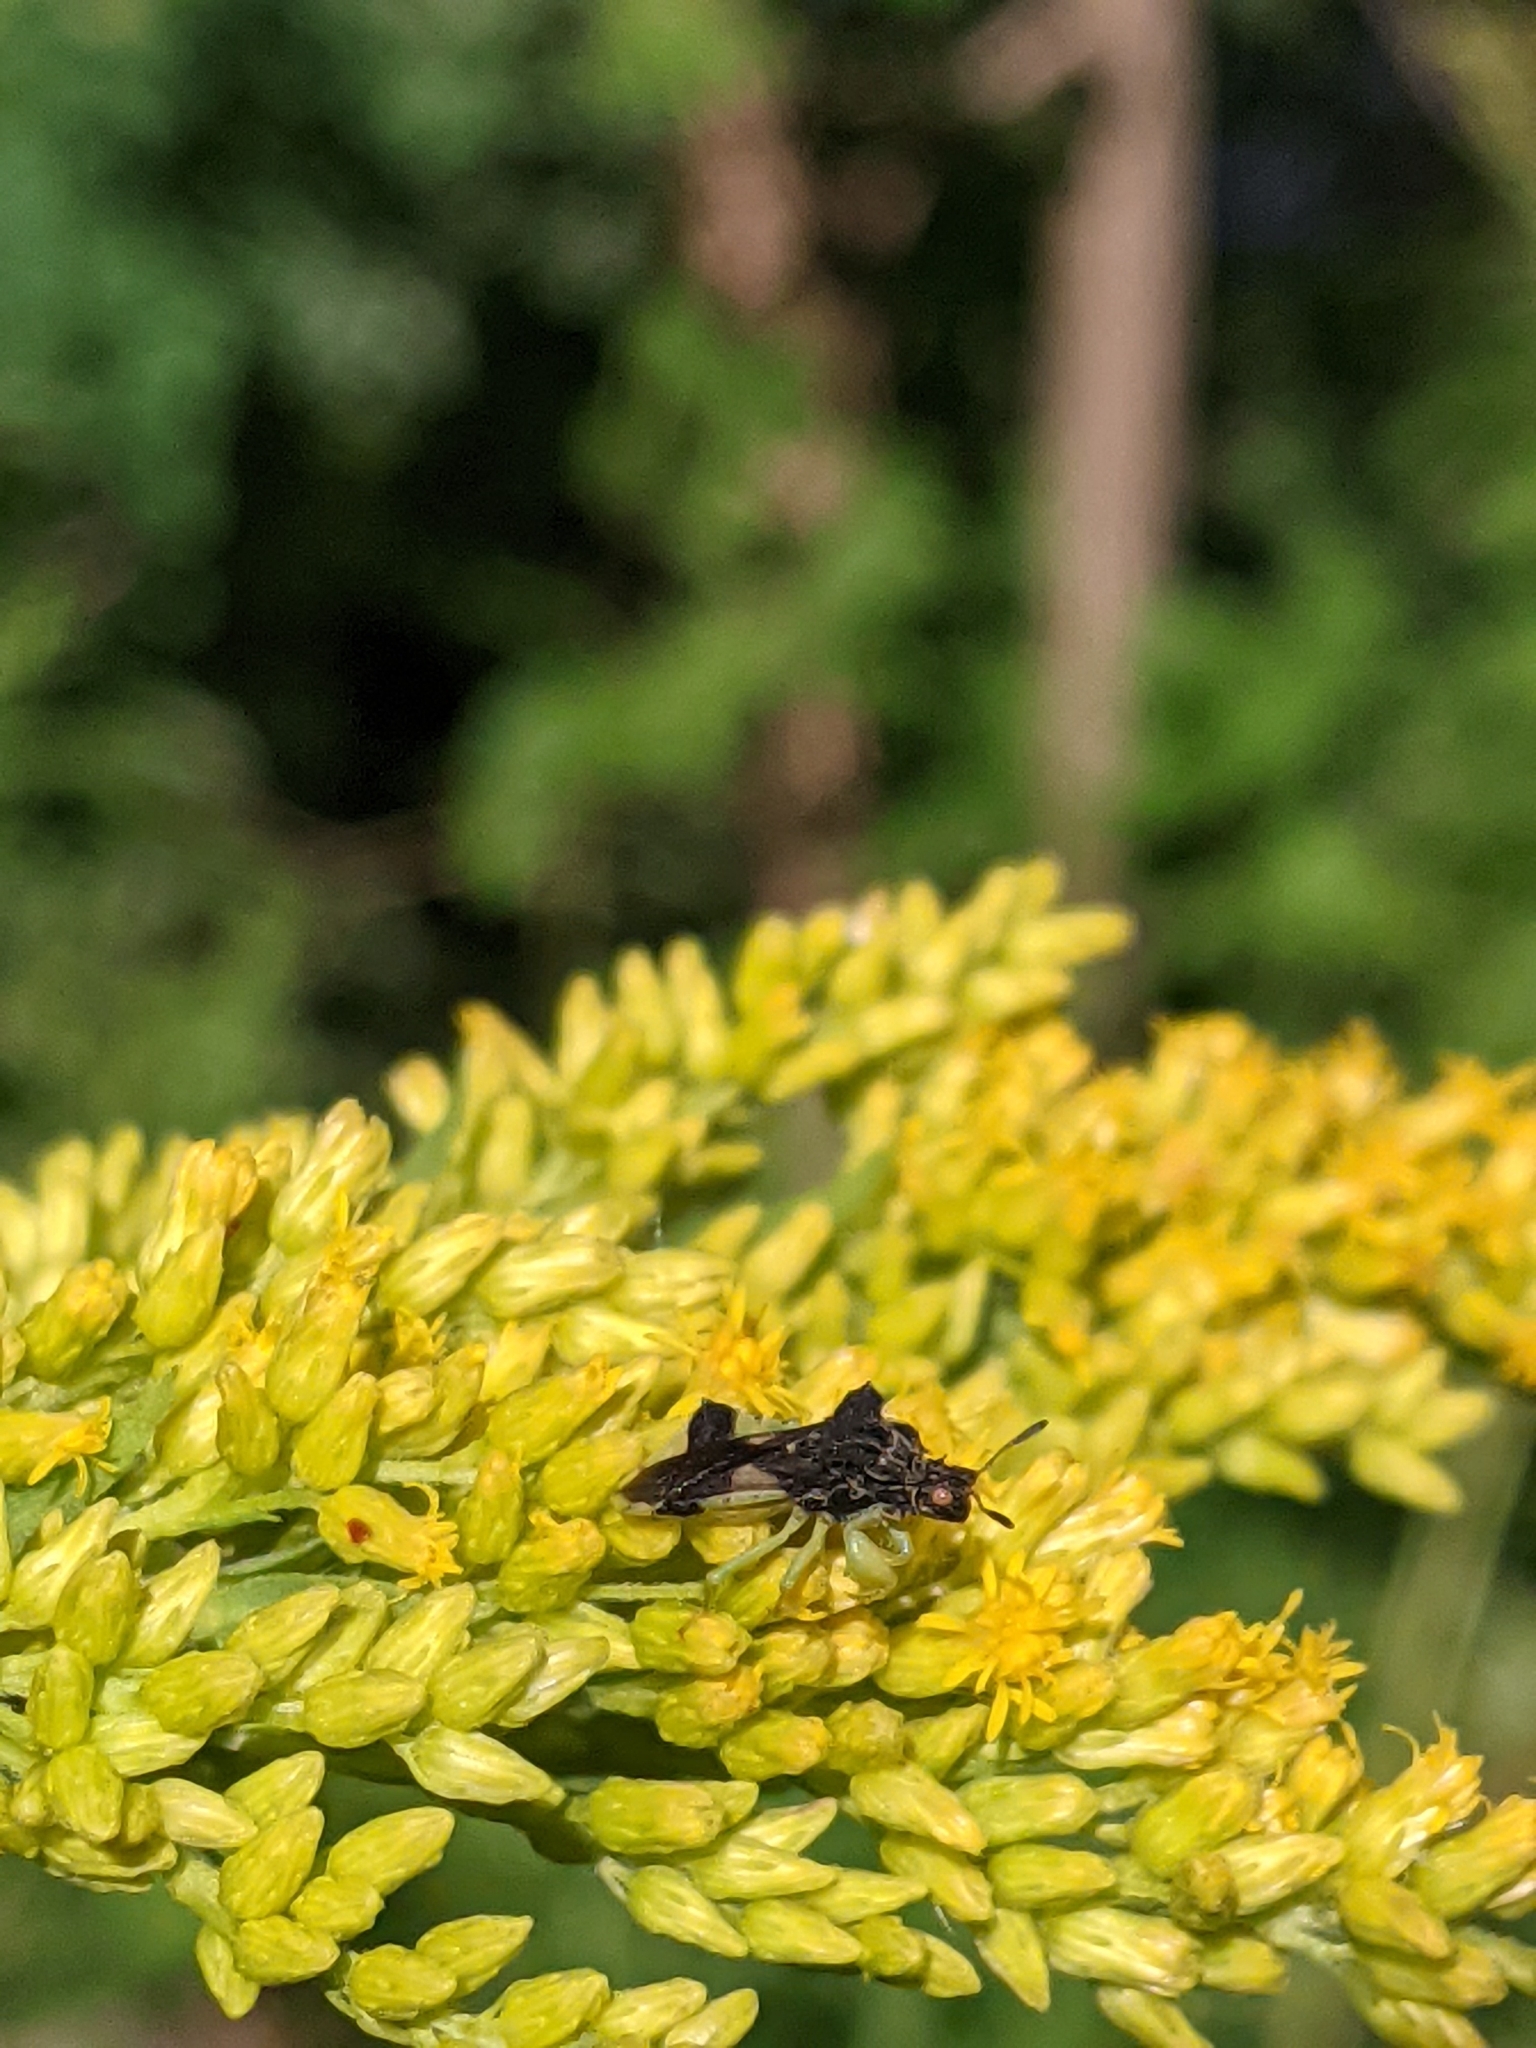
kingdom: Animalia
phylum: Arthropoda
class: Insecta
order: Hemiptera
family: Reduviidae
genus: Phymata
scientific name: Phymata americana
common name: Jagged ambush bug
